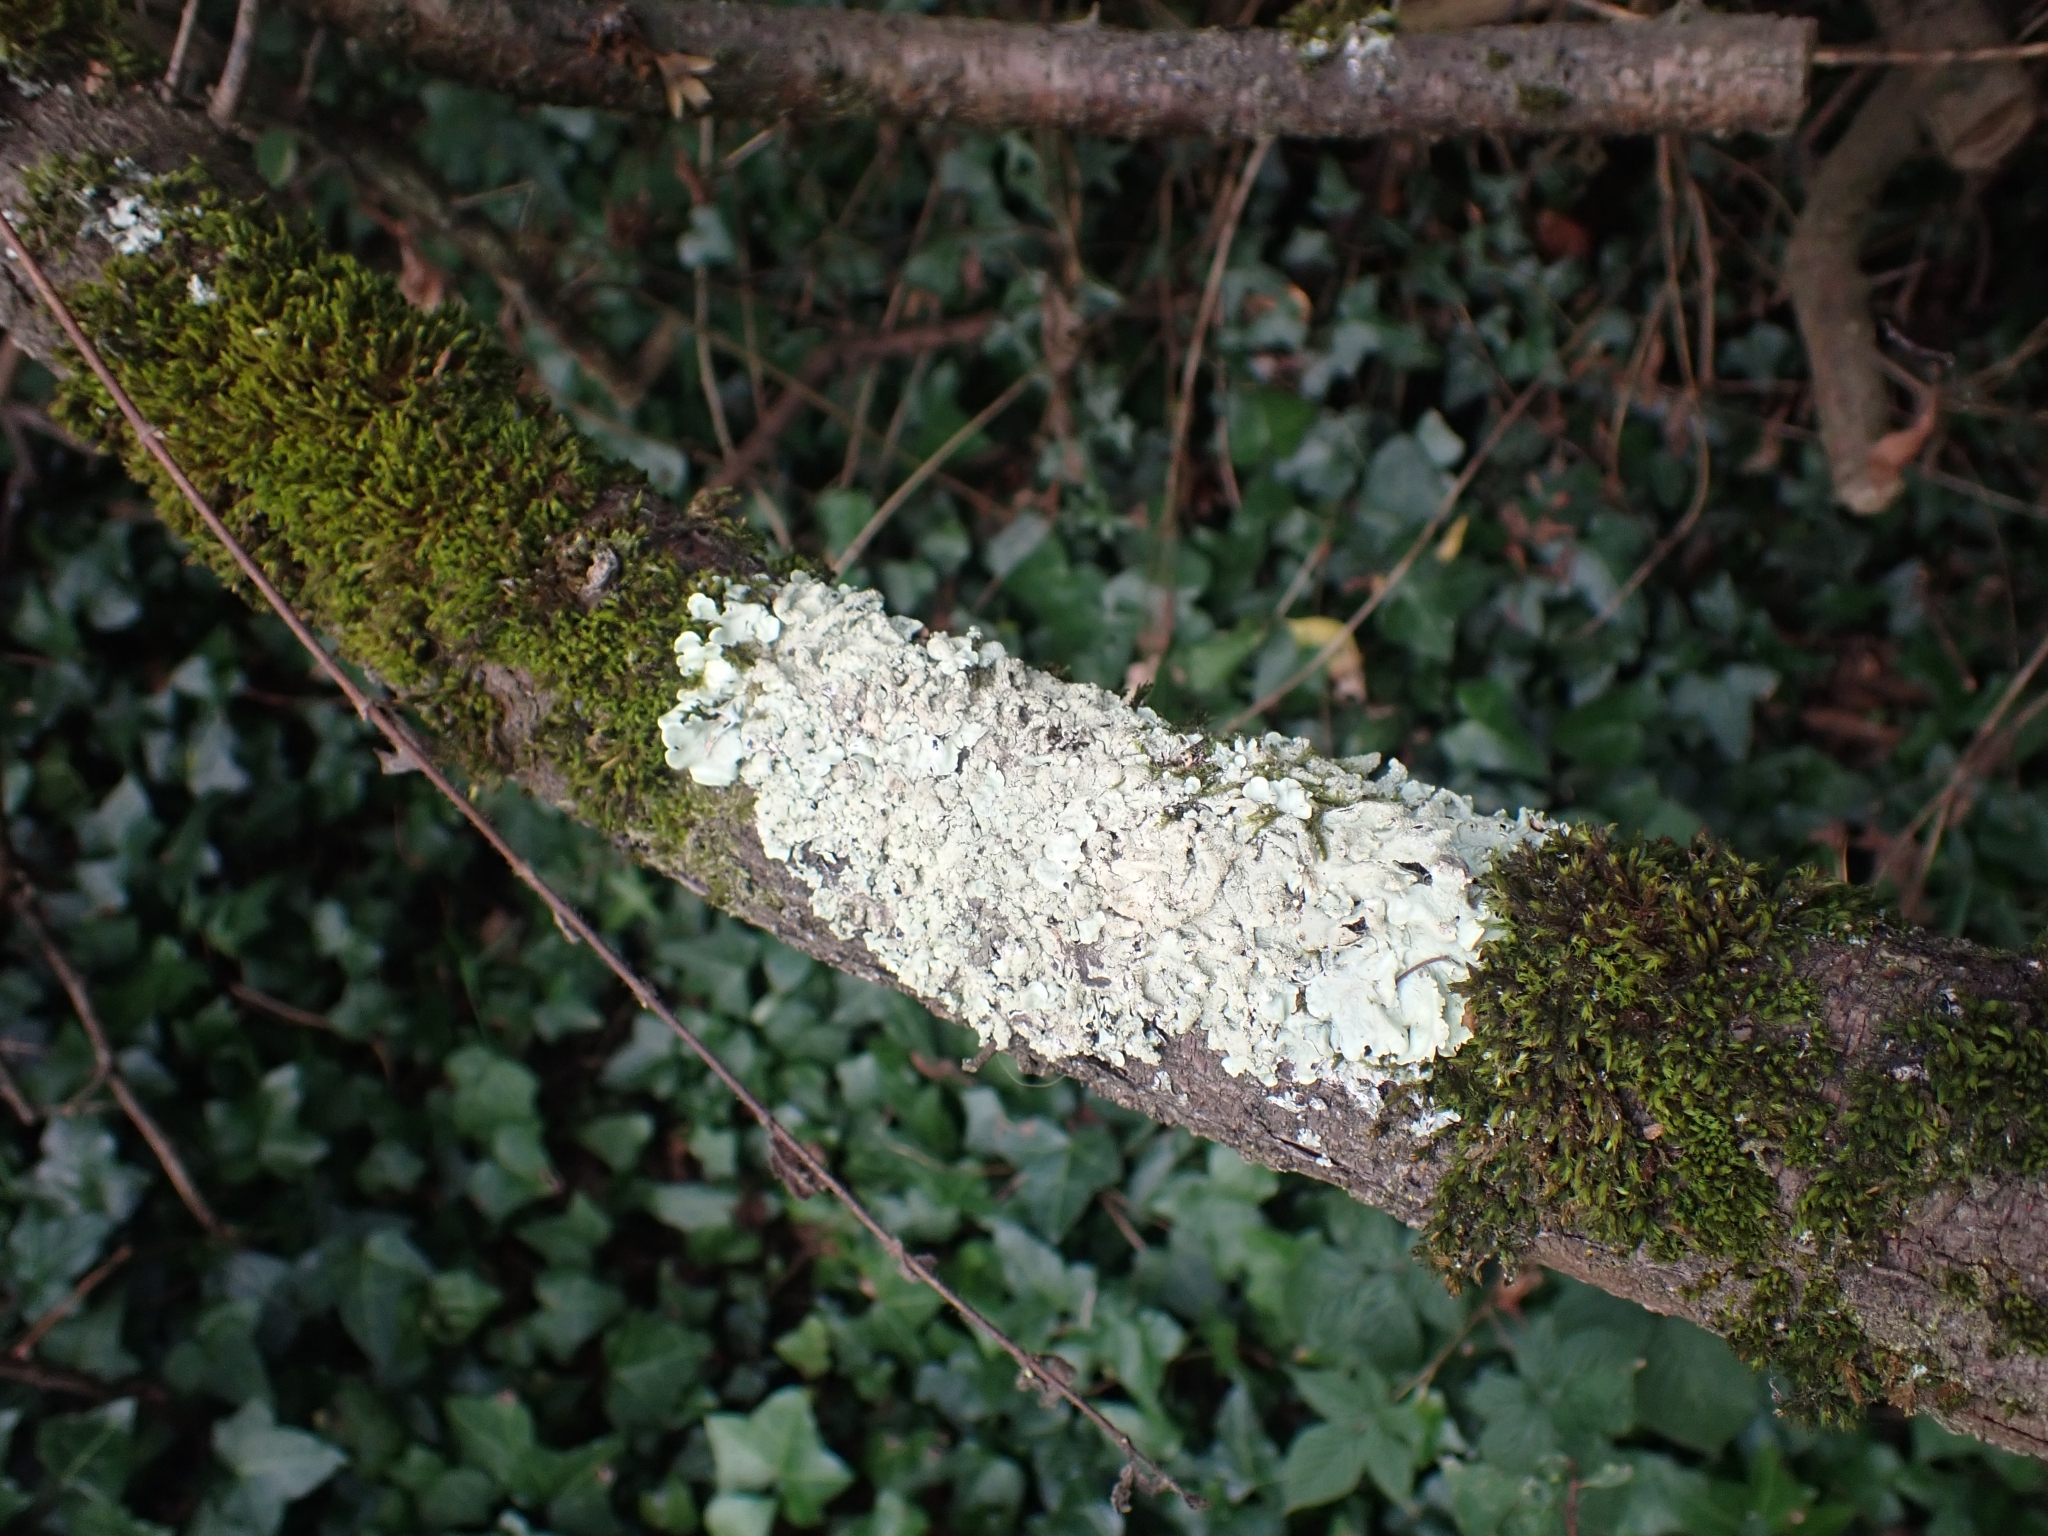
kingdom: Fungi
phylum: Ascomycota
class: Lecanoromycetes
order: Lecanorales
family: Parmeliaceae
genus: Flavoparmelia
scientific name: Flavoparmelia caperata
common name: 40-mile per hour lichen
